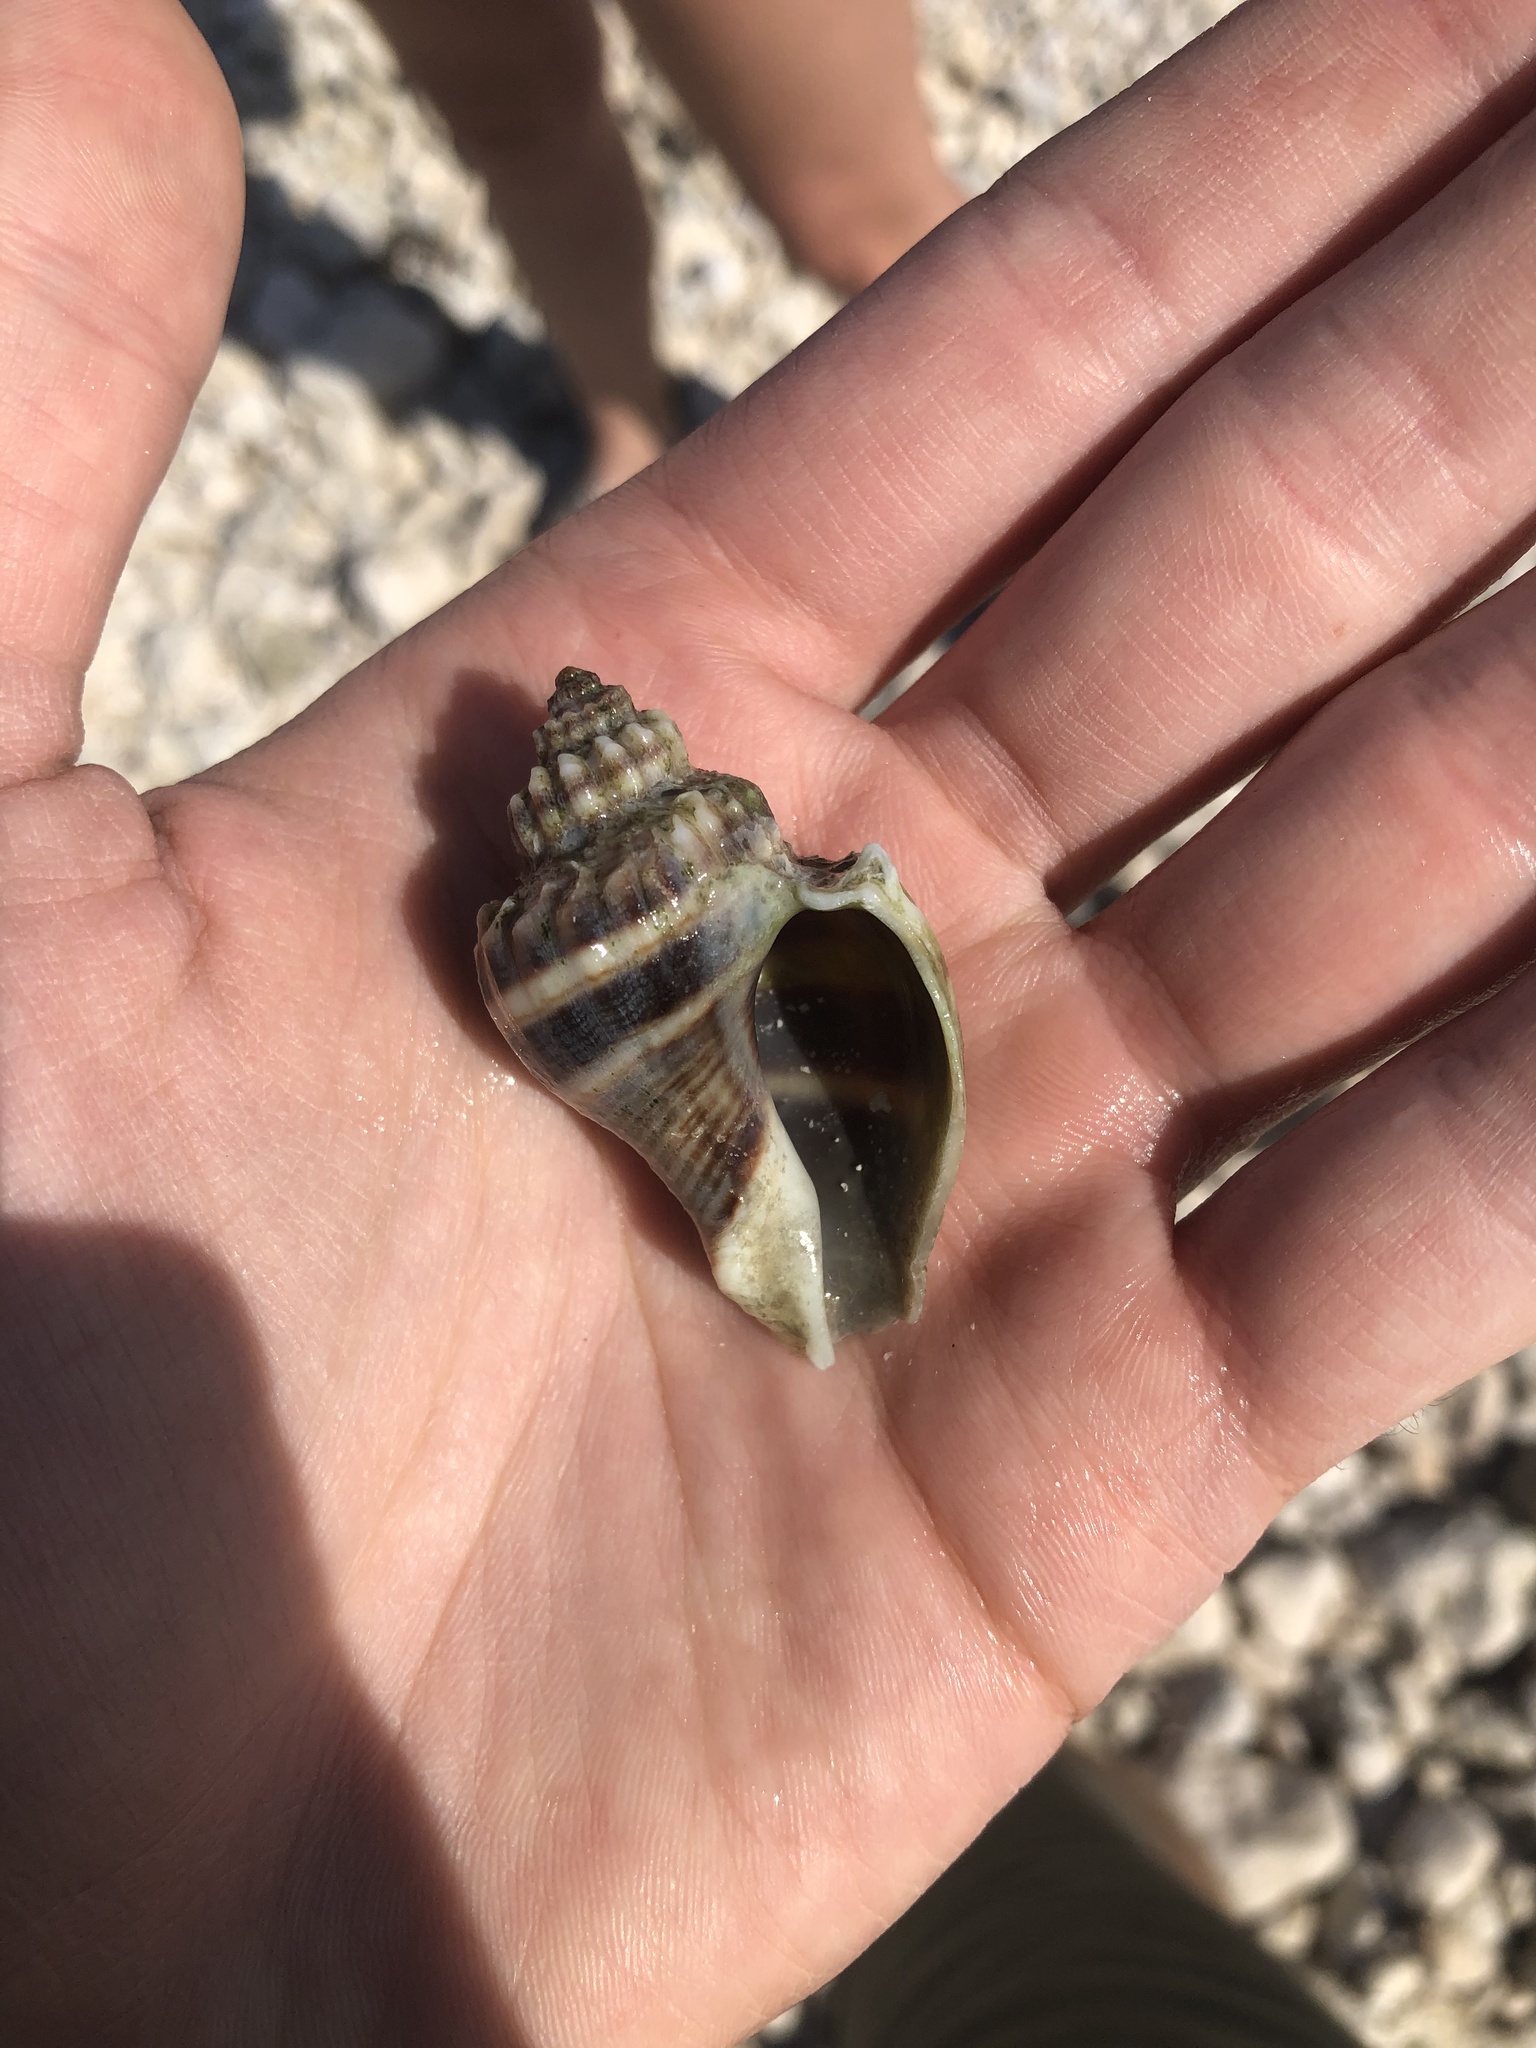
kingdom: Animalia
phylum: Mollusca
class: Gastropoda
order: Neogastropoda
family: Melongenidae
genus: Melongena
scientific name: Melongena corona
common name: American crown conch
